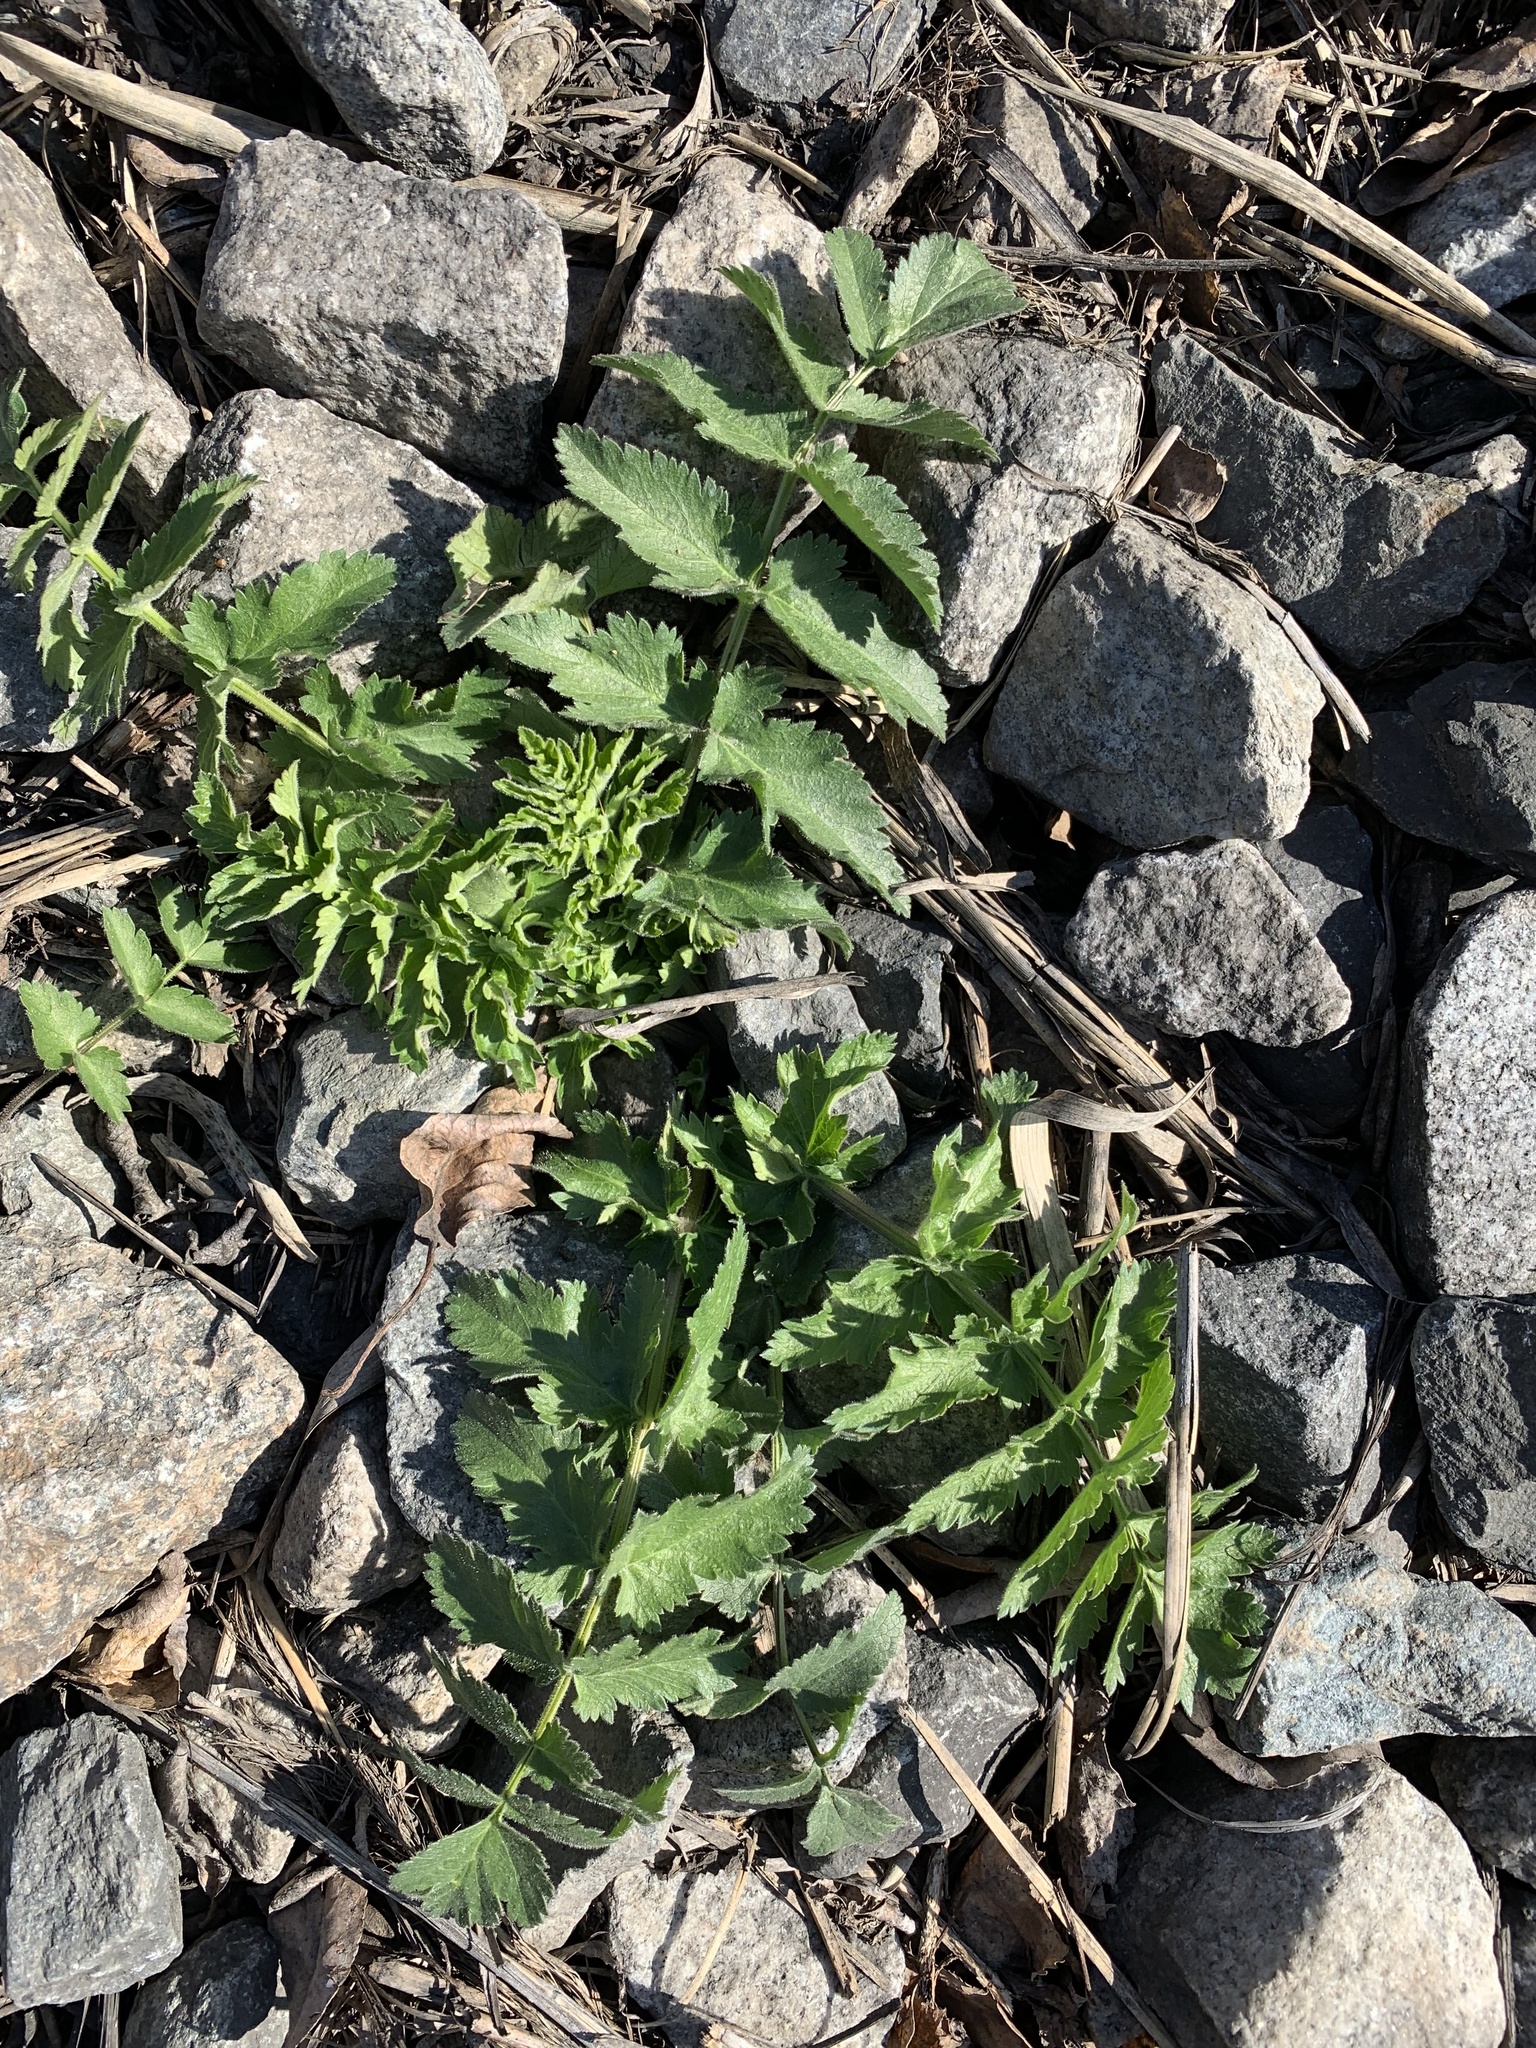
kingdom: Plantae
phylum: Tracheophyta
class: Magnoliopsida
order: Apiales
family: Apiaceae
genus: Pastinaca
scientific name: Pastinaca sativa
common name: Wild parsnip
